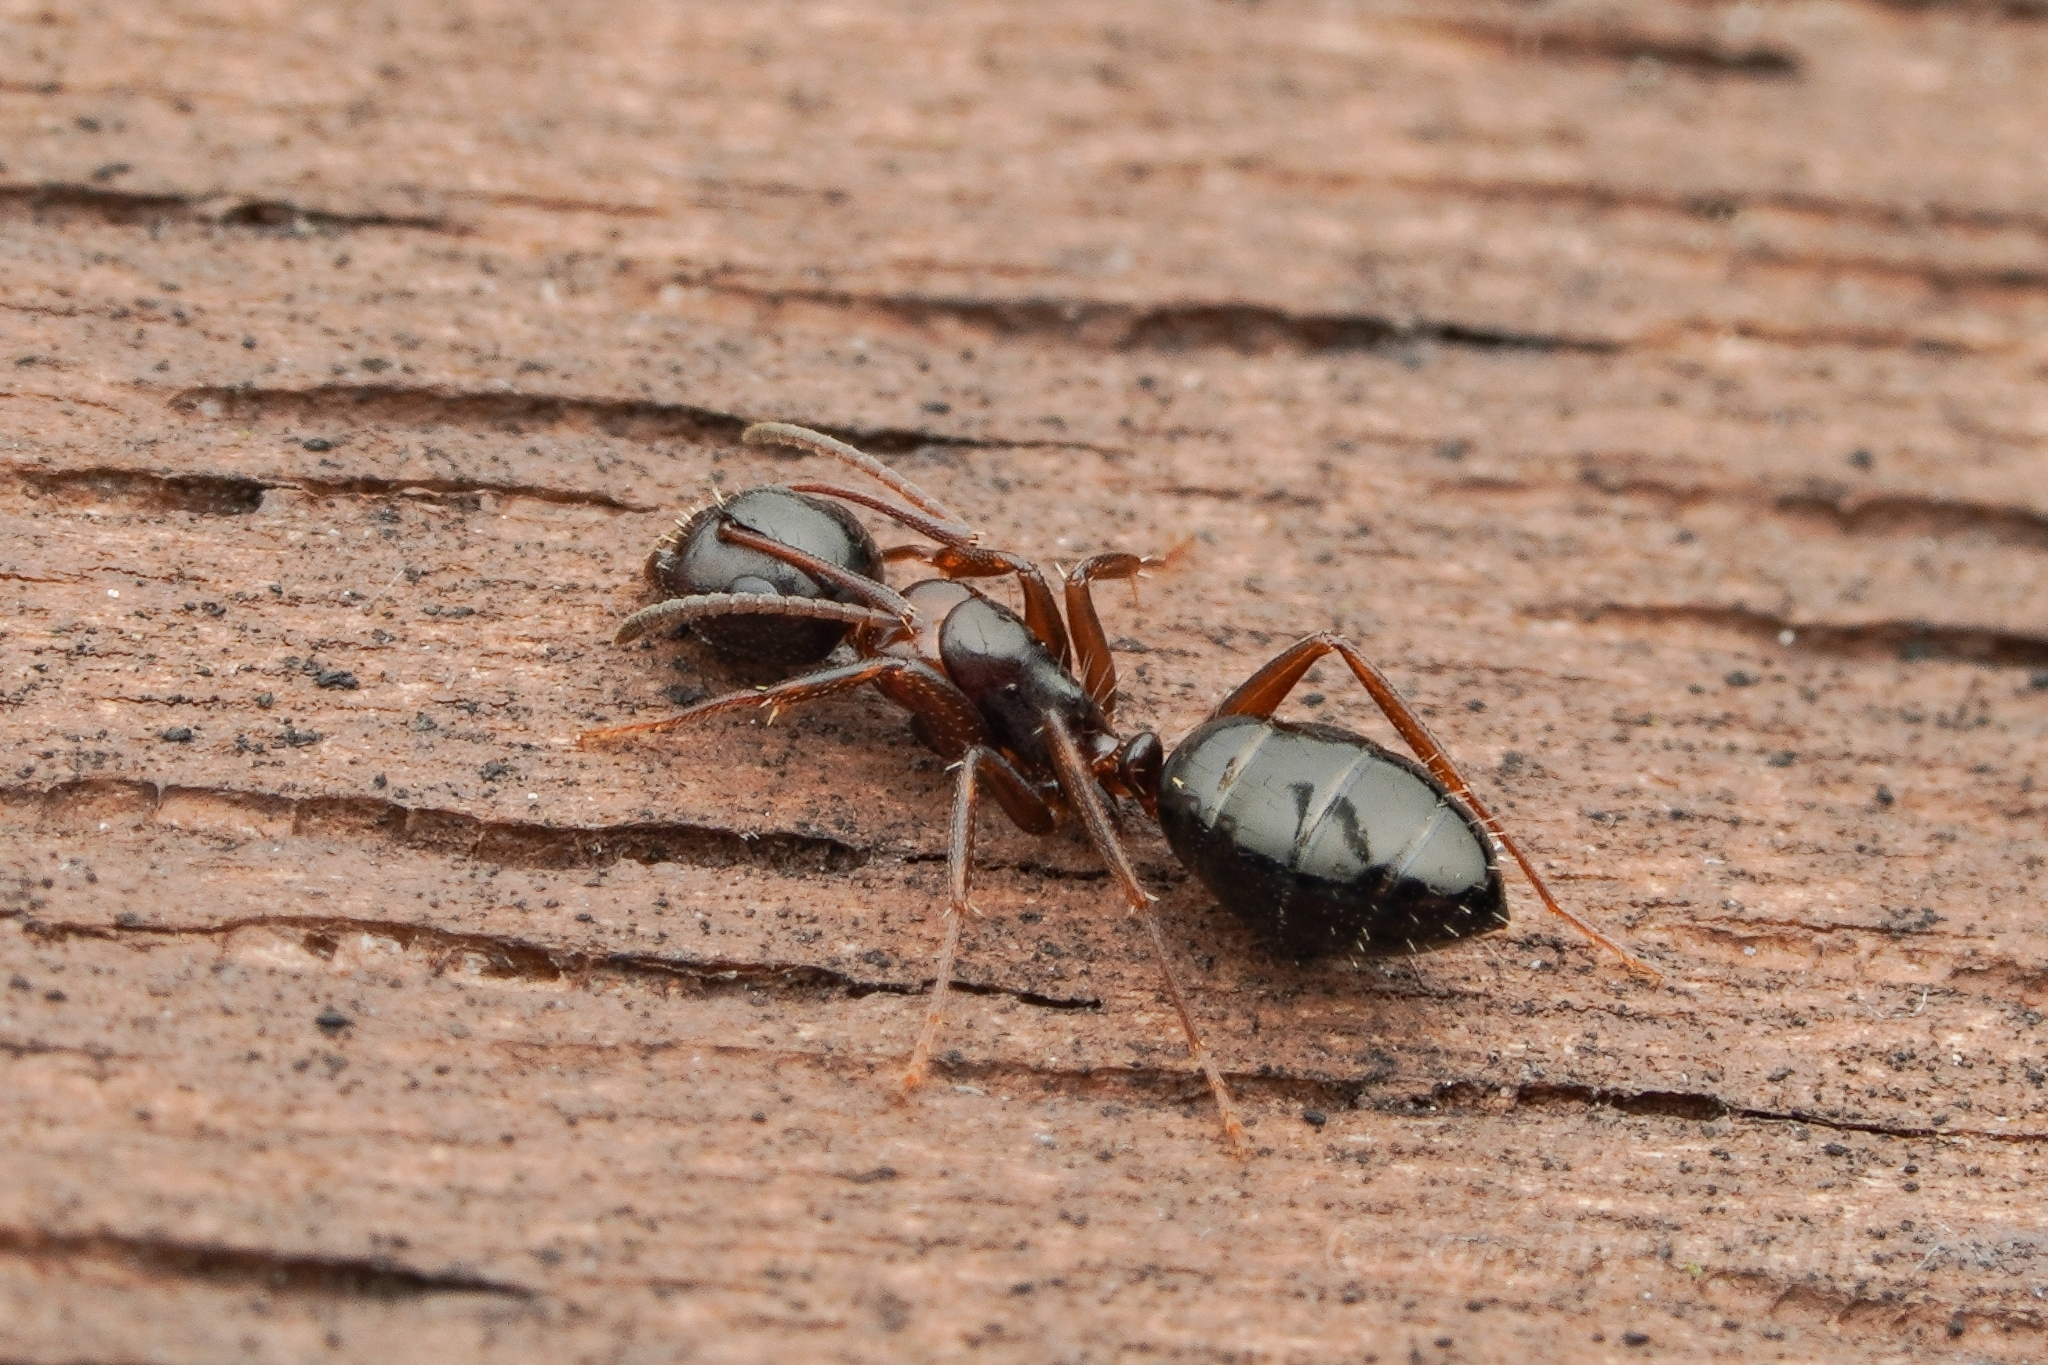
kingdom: Animalia
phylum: Arthropoda
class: Insecta
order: Hymenoptera
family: Formicidae
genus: Camponotus
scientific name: Camponotus vitiosus
